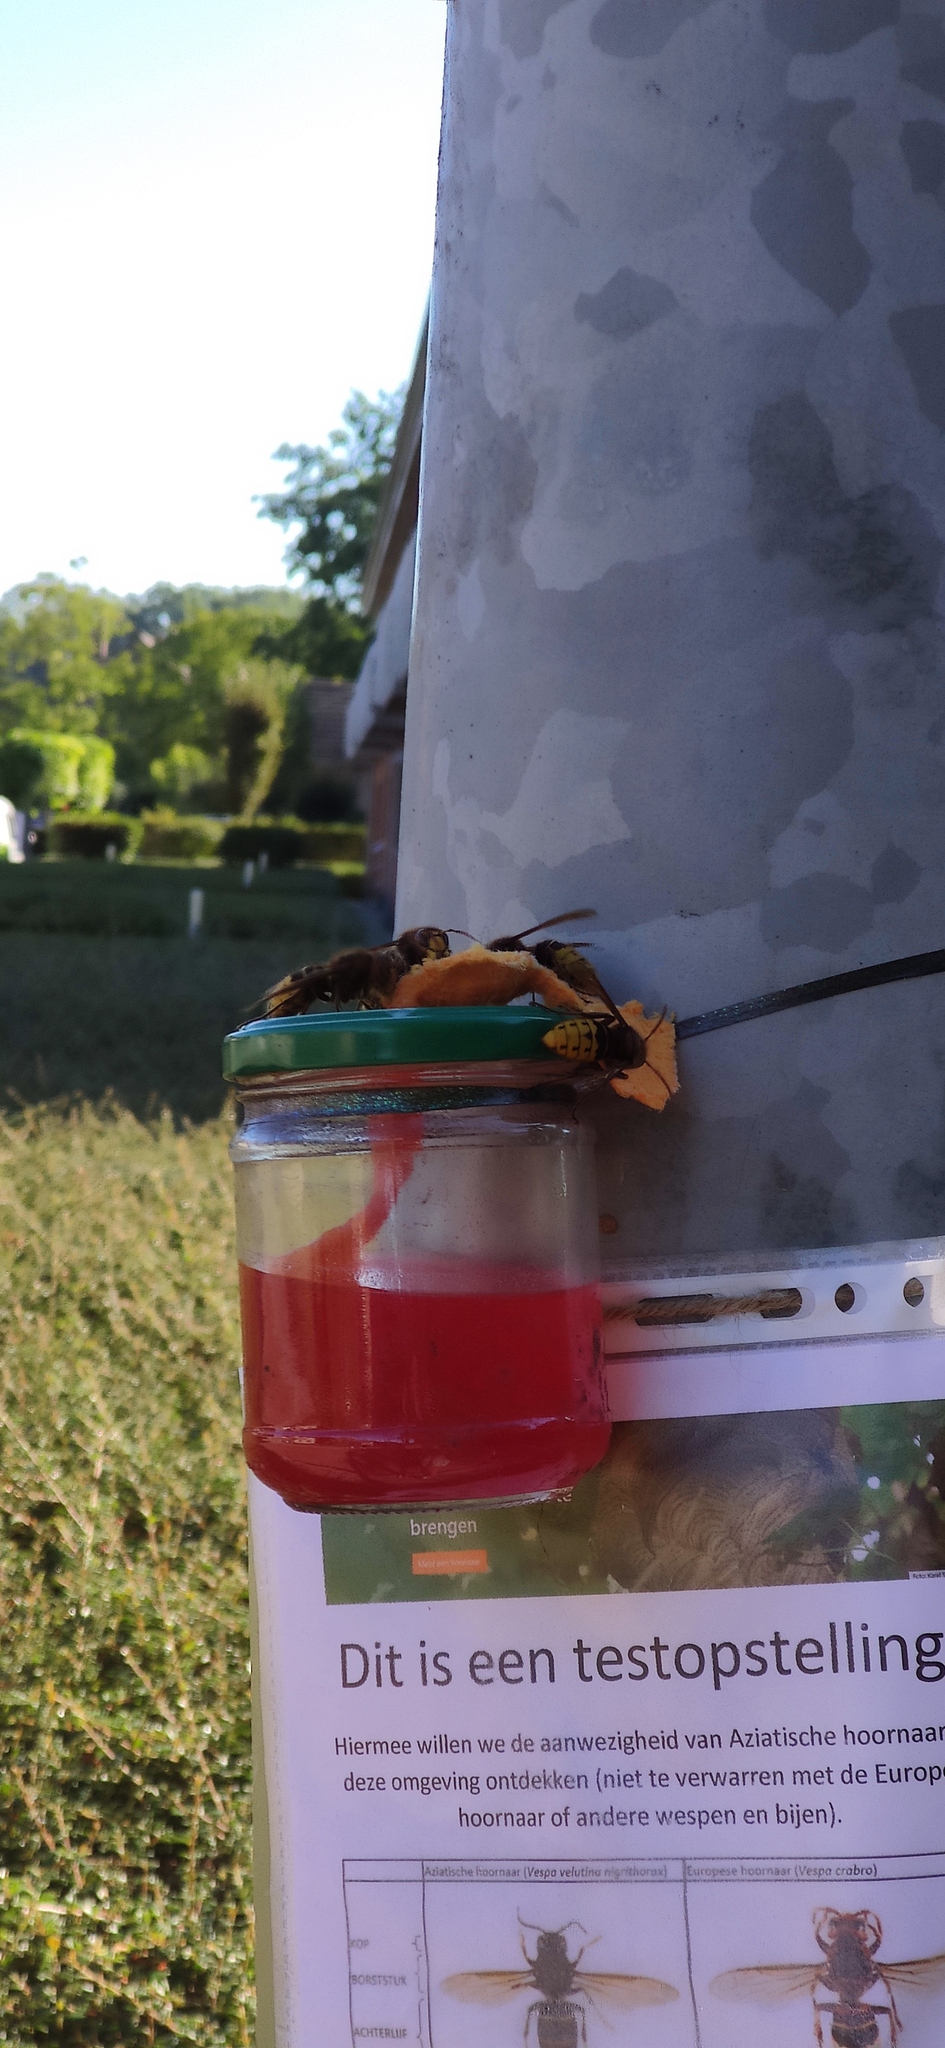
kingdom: Animalia
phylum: Arthropoda
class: Insecta
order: Hymenoptera
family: Vespidae
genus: Vespa
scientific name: Vespa crabro
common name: Hornet
